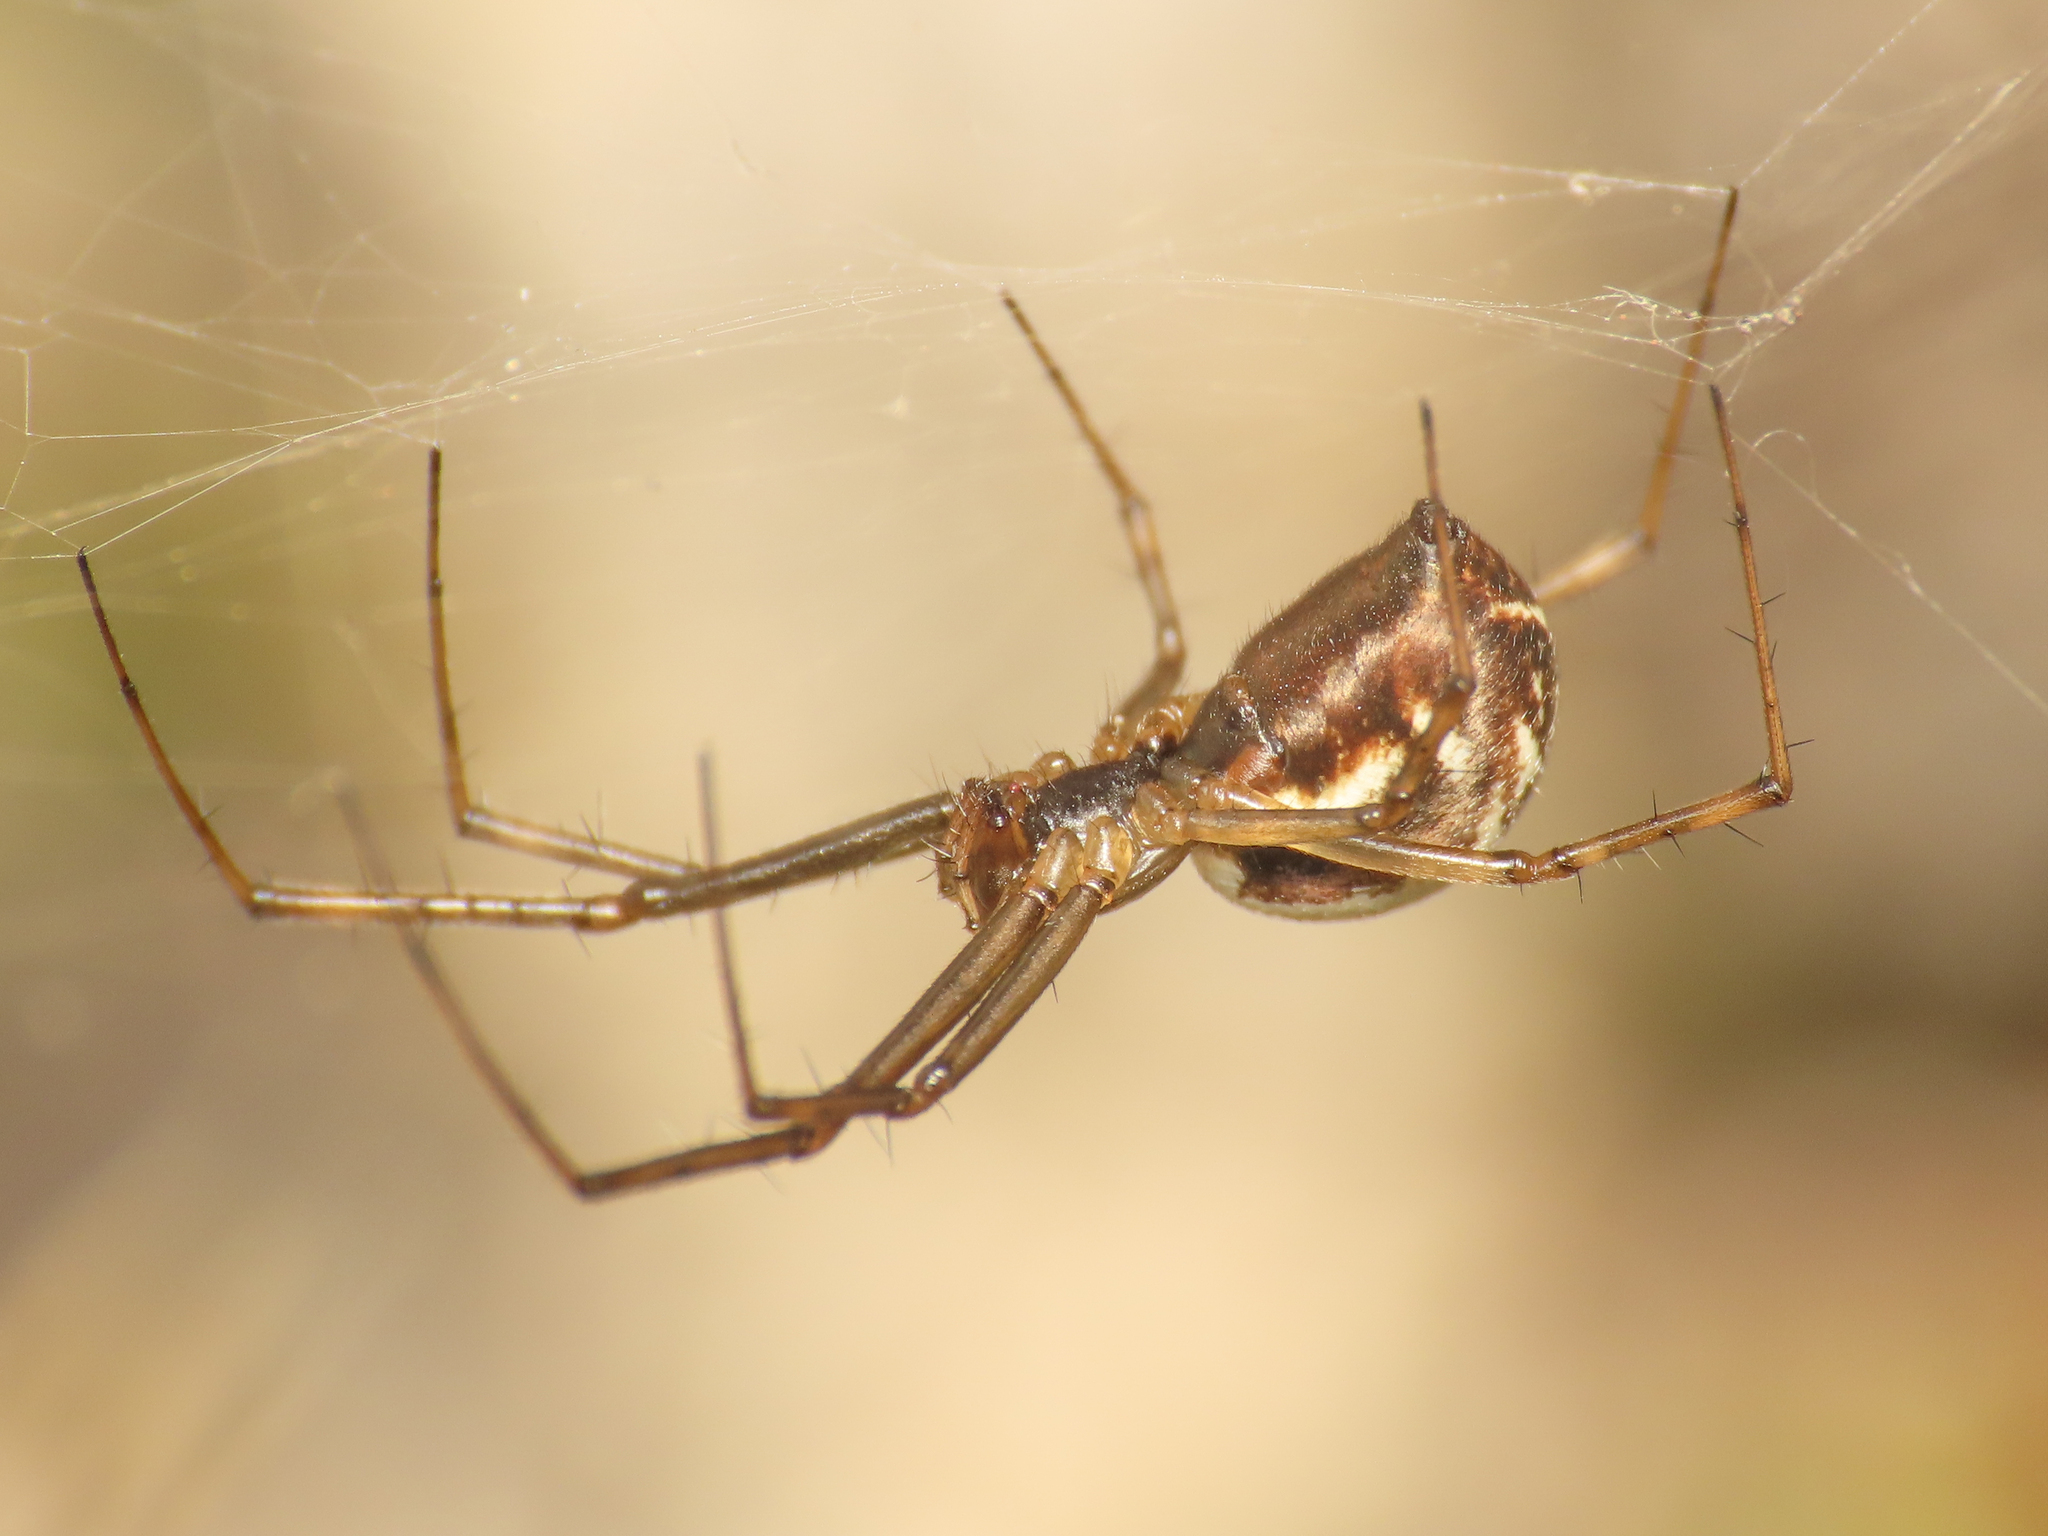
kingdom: Animalia
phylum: Arthropoda
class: Arachnida
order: Araneae
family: Linyphiidae
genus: Linyphia
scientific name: Linyphia tenuipalpis
